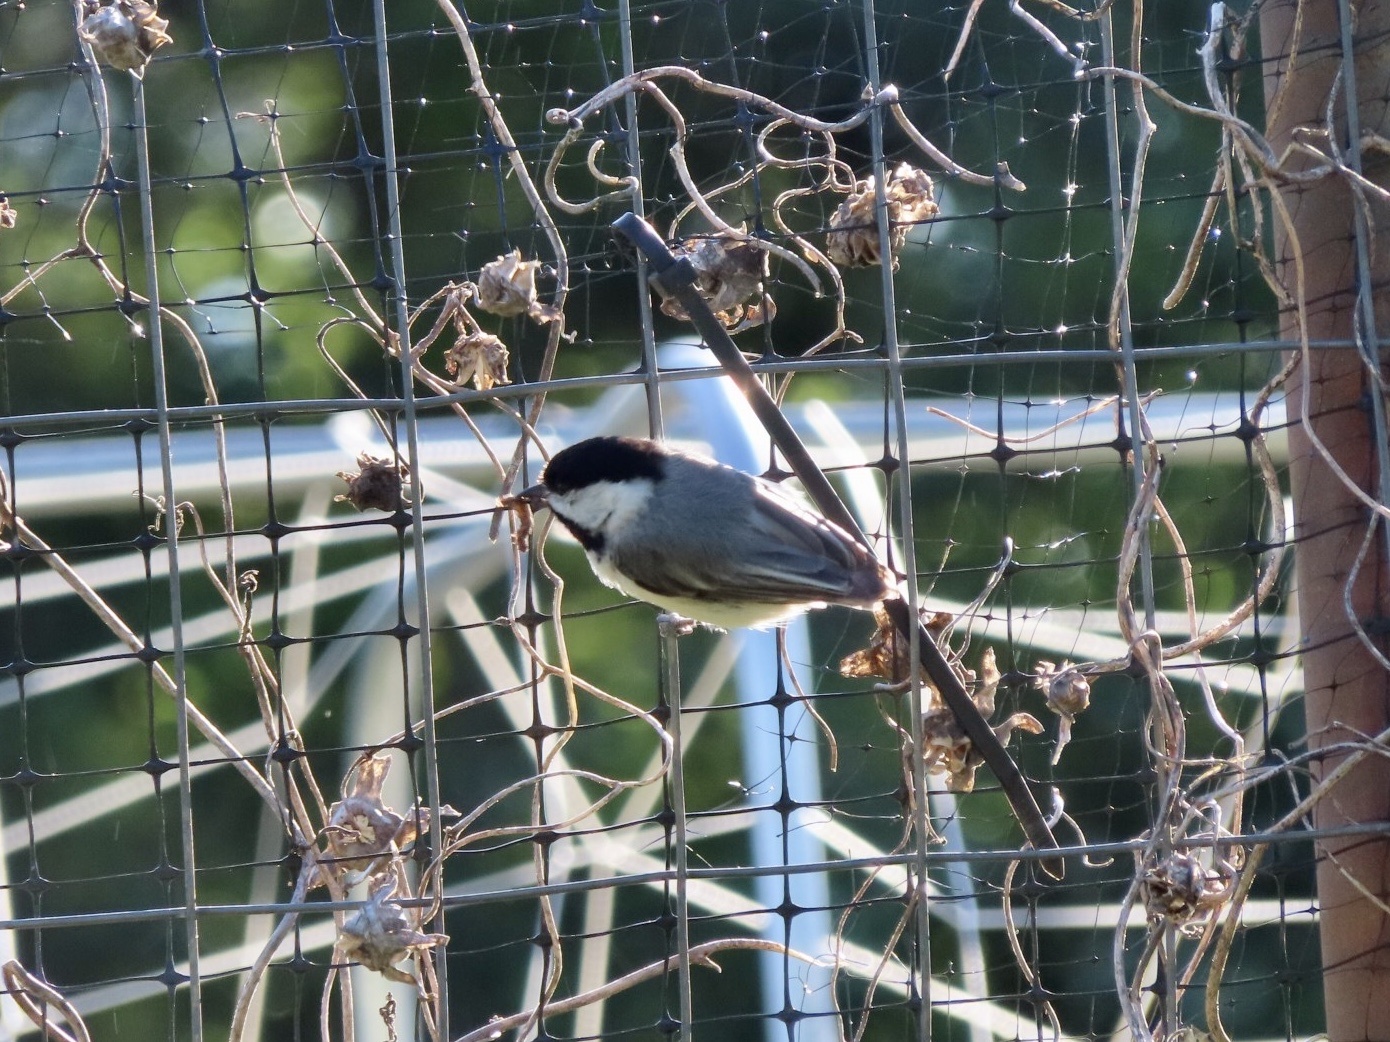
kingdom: Animalia
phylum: Chordata
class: Aves
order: Passeriformes
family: Paridae
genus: Poecile
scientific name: Poecile carolinensis
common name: Carolina chickadee
